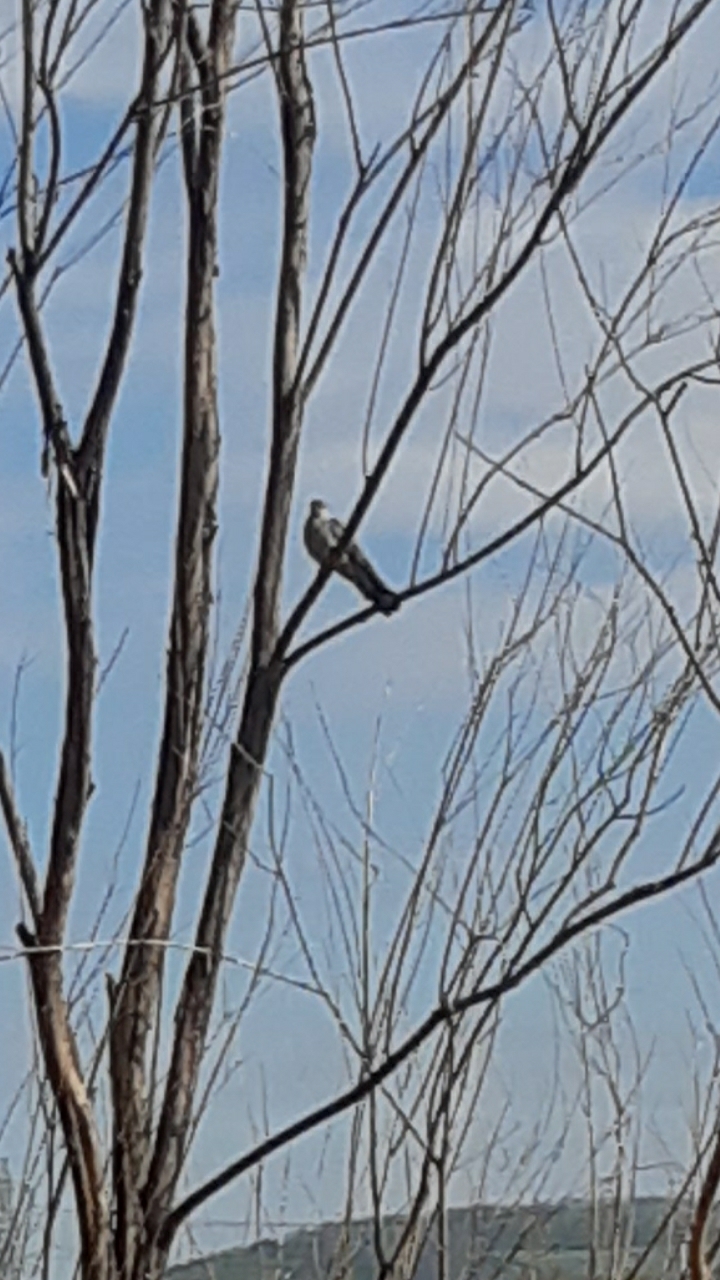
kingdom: Animalia
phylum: Chordata
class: Aves
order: Cuculiformes
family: Cuculidae
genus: Cuculus
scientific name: Cuculus canorus
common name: Common cuckoo
